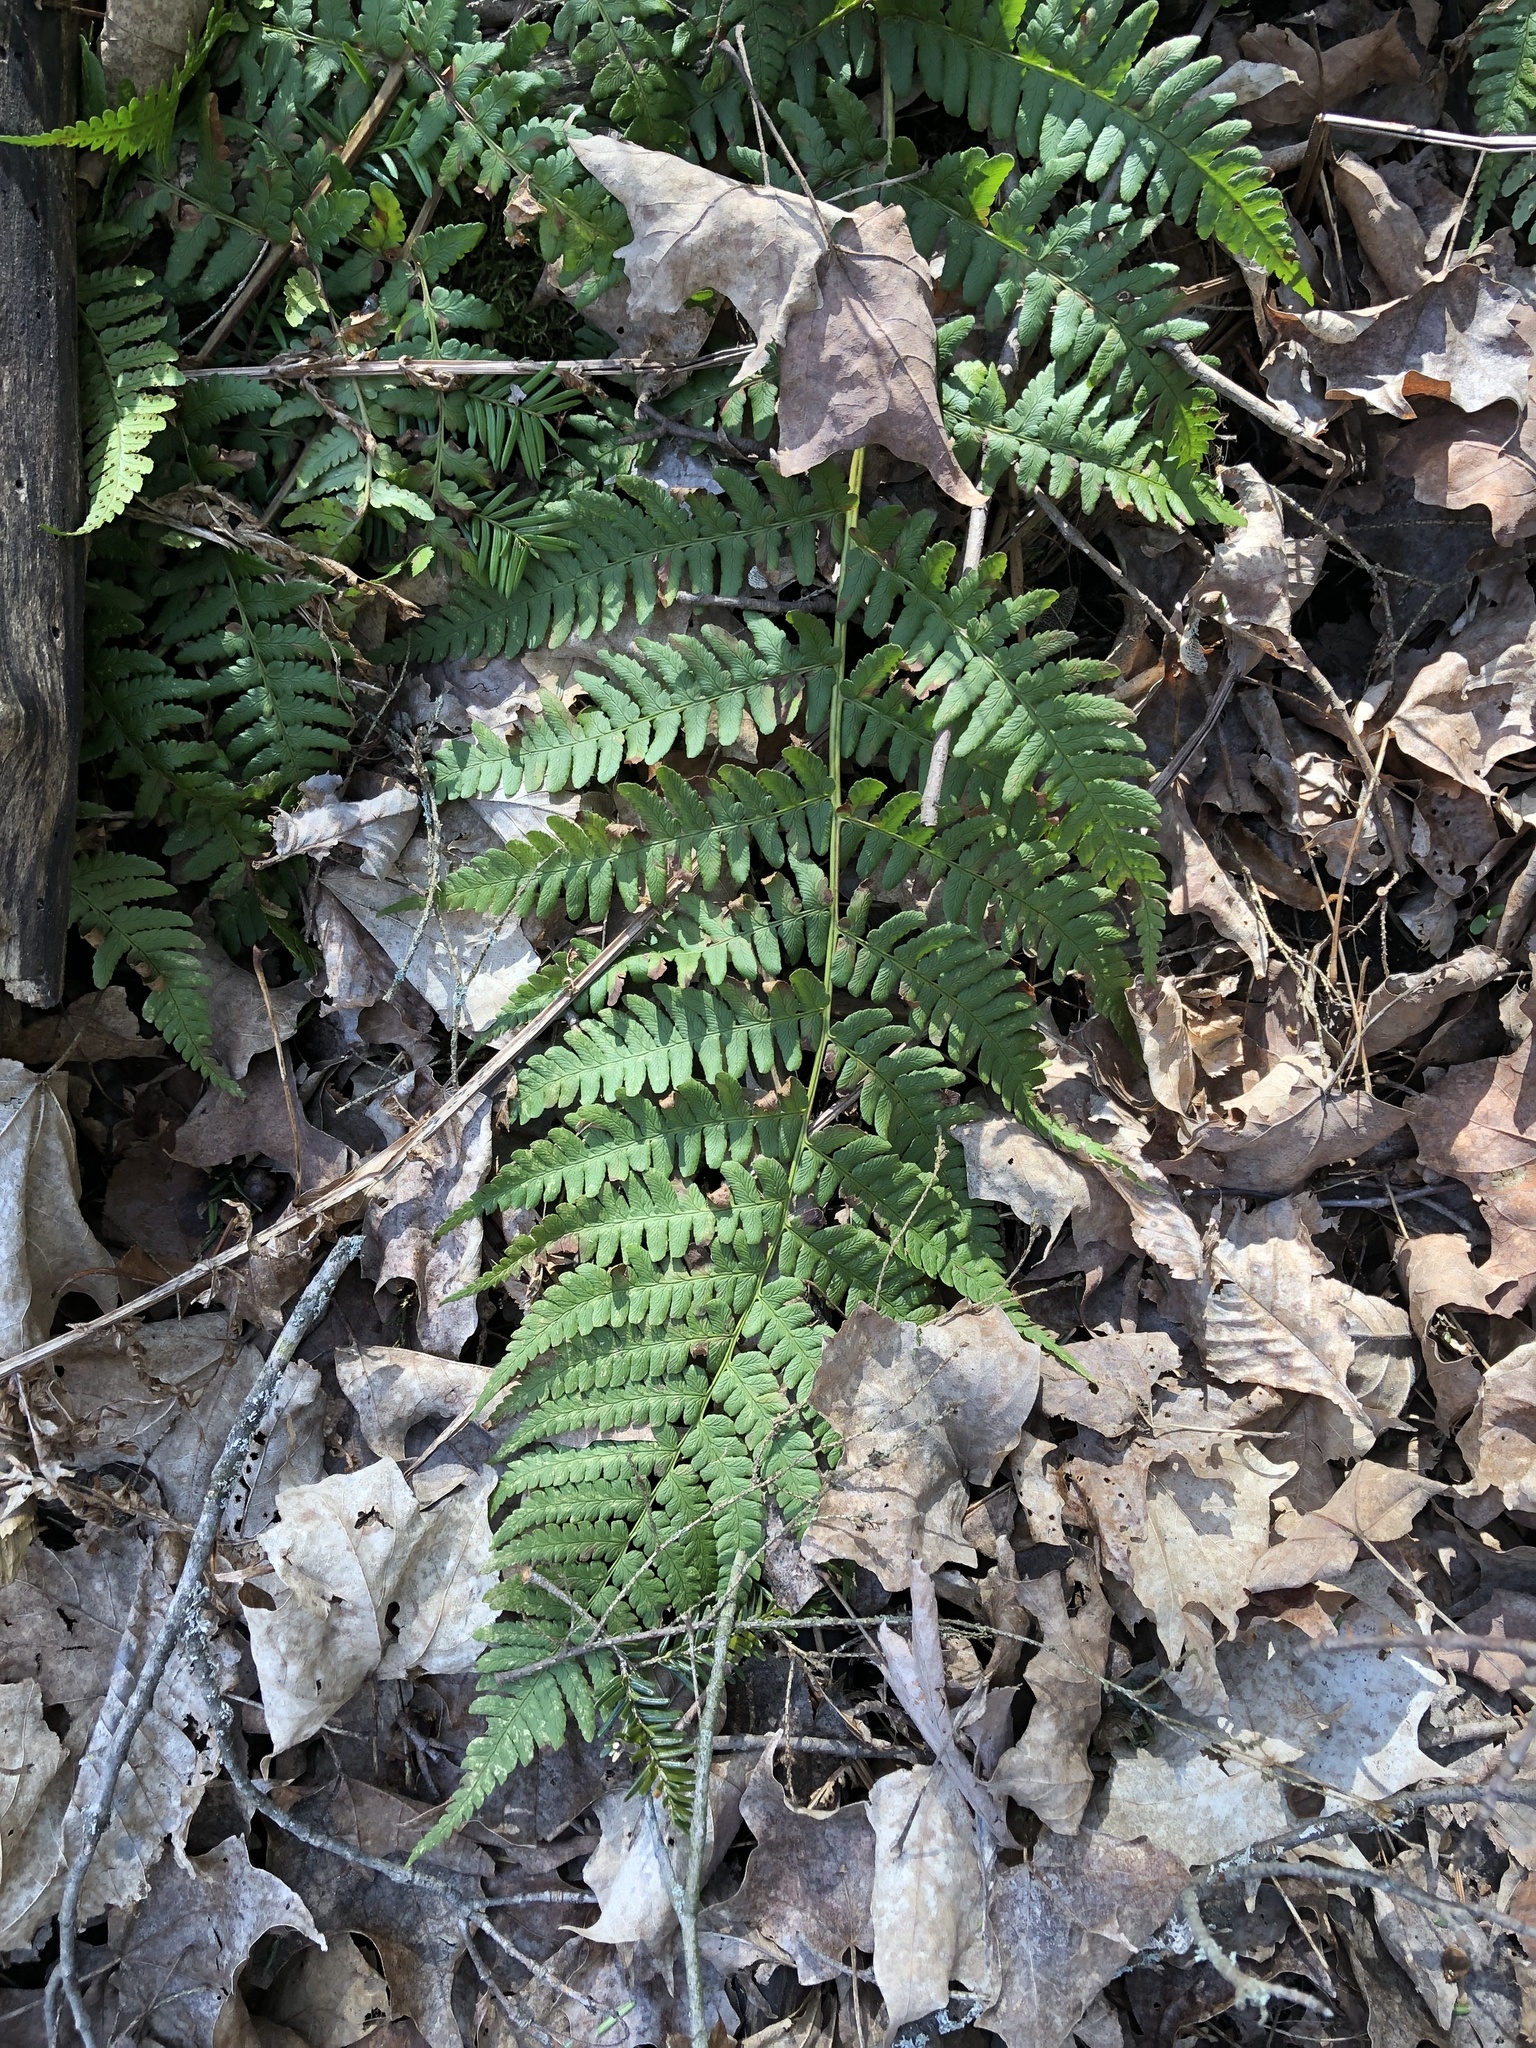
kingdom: Plantae
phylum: Tracheophyta
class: Polypodiopsida
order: Polypodiales
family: Dryopteridaceae
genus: Dryopteris
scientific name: Dryopteris marginalis
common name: Marginal wood fern
